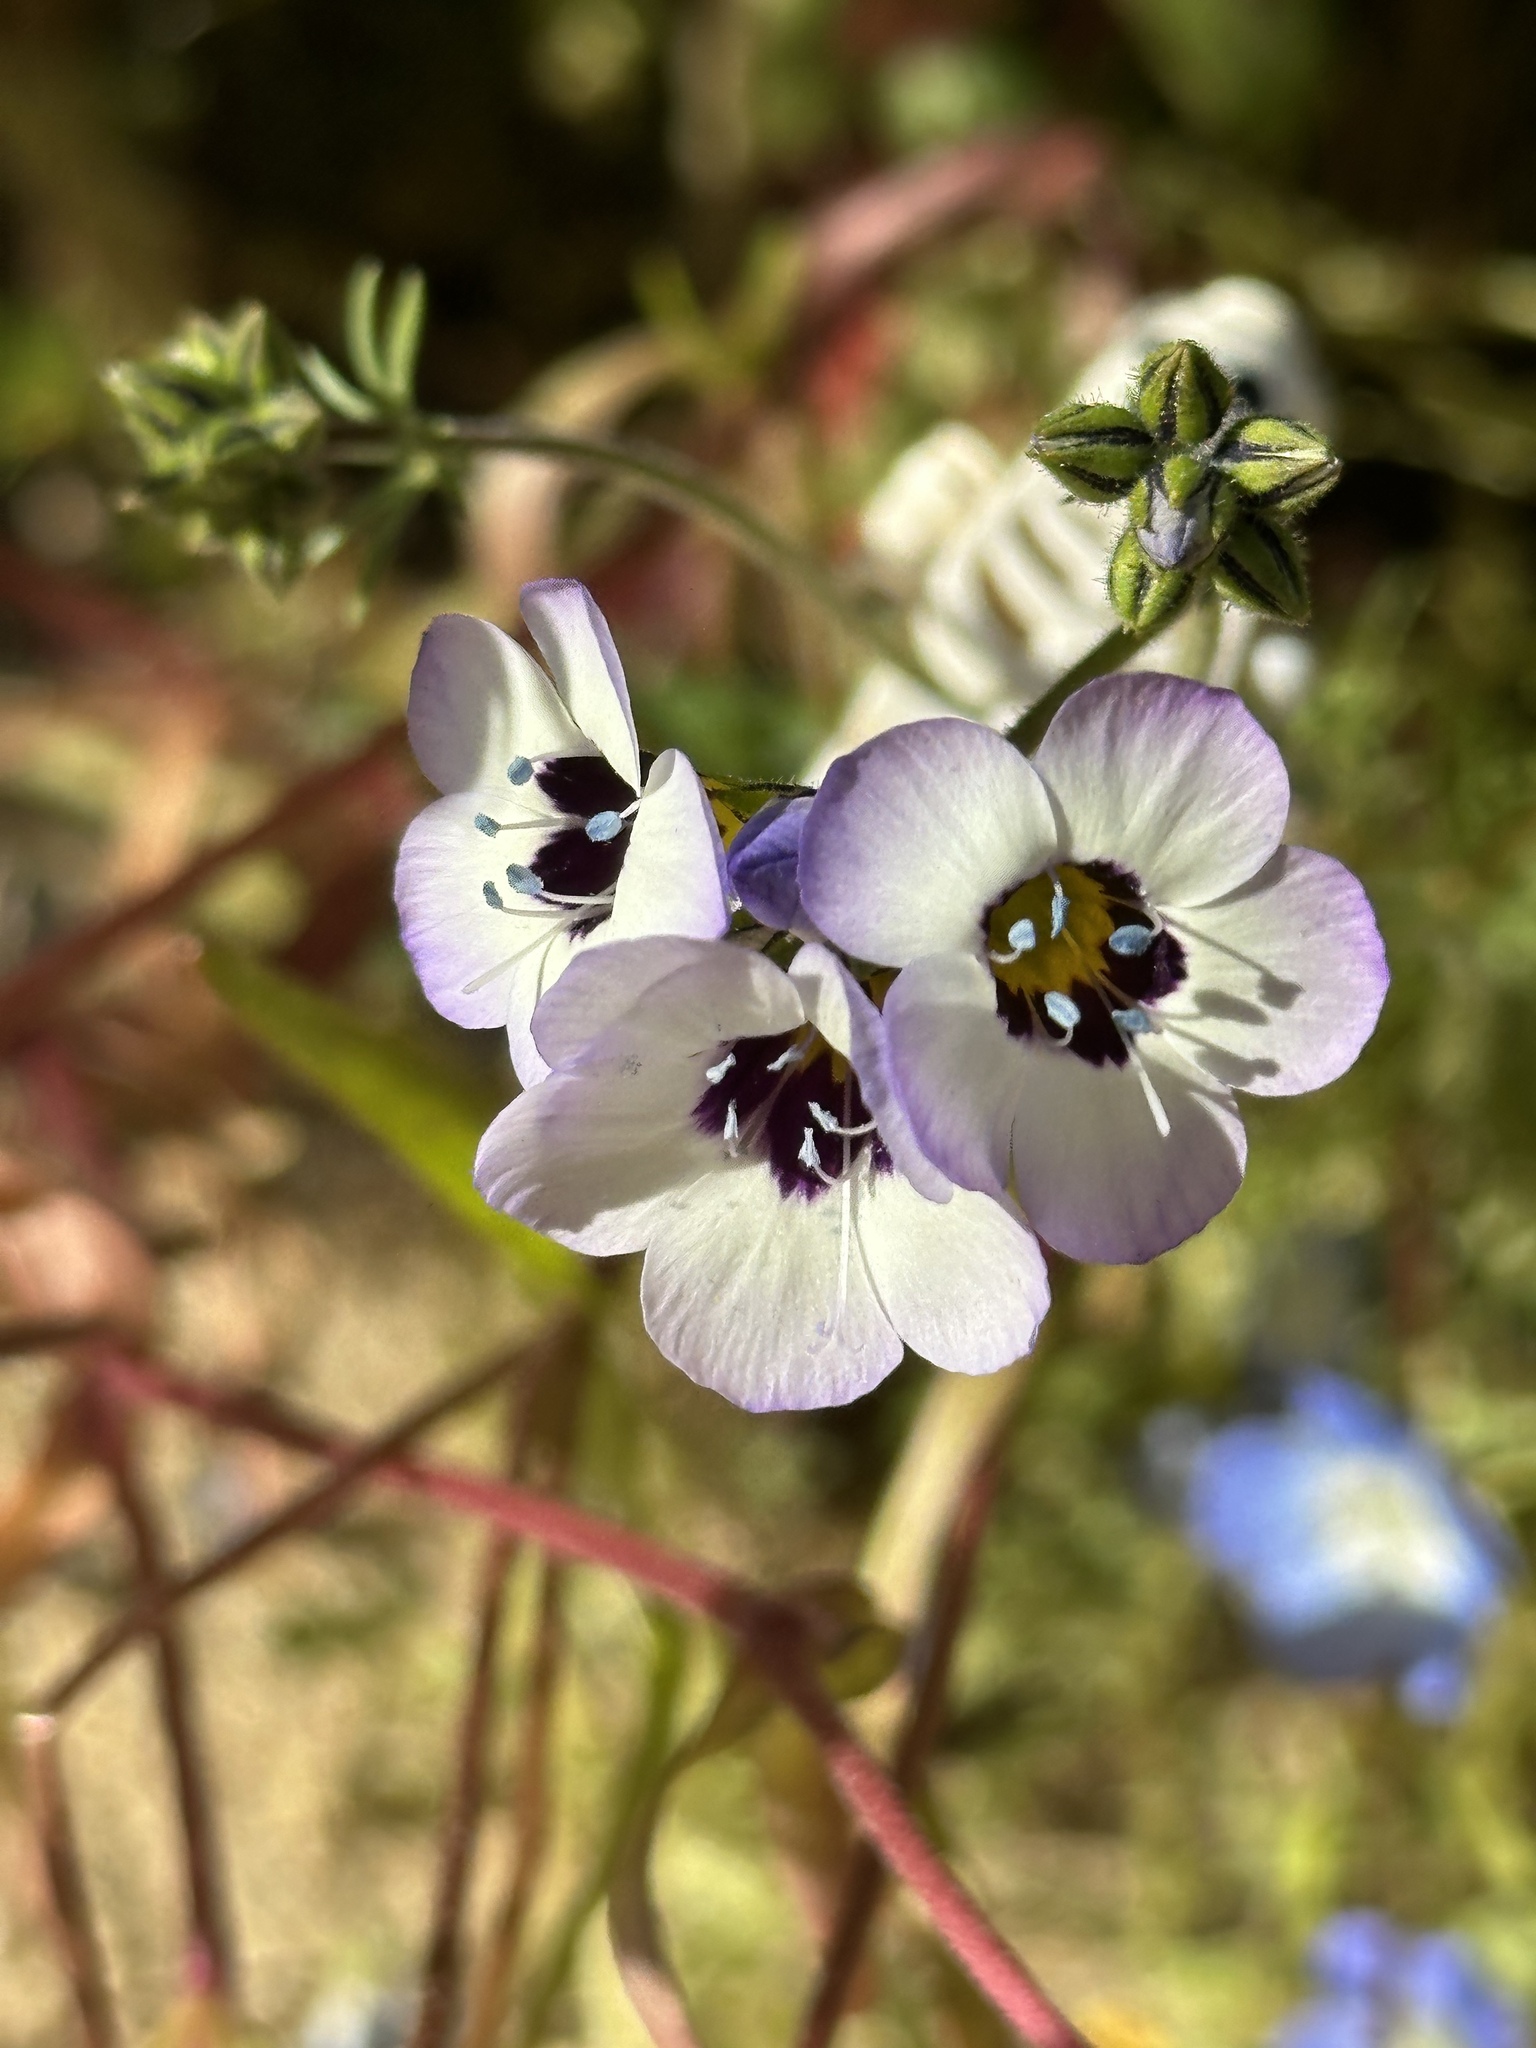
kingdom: Plantae
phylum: Tracheophyta
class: Magnoliopsida
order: Ericales
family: Polemoniaceae
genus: Gilia
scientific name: Gilia tricolor
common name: Bird's-eyes
